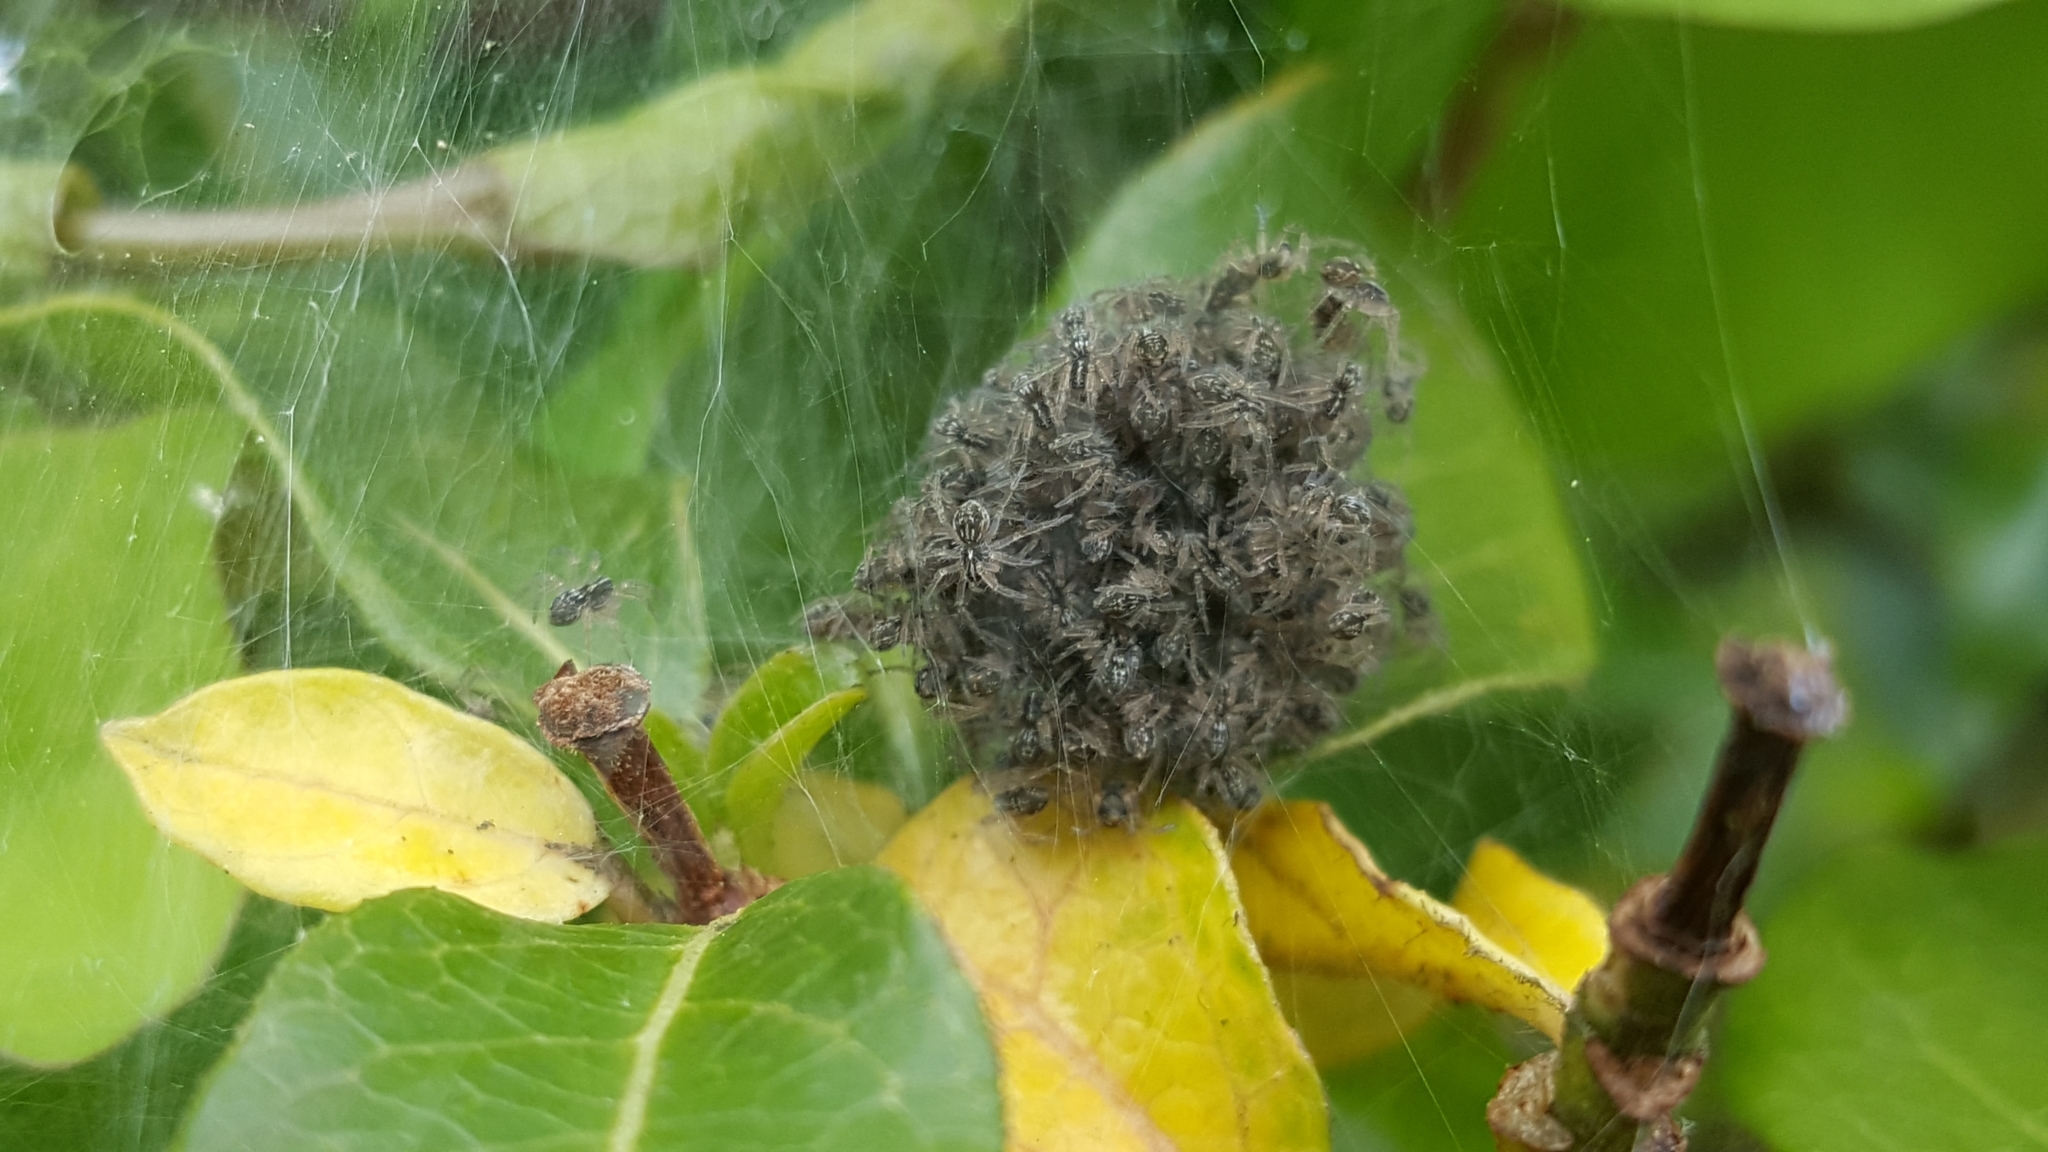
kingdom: Animalia
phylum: Arthropoda
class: Arachnida
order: Araneae
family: Pisauridae
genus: Pisaura
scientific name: Pisaura mirabilis
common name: Tent spider
